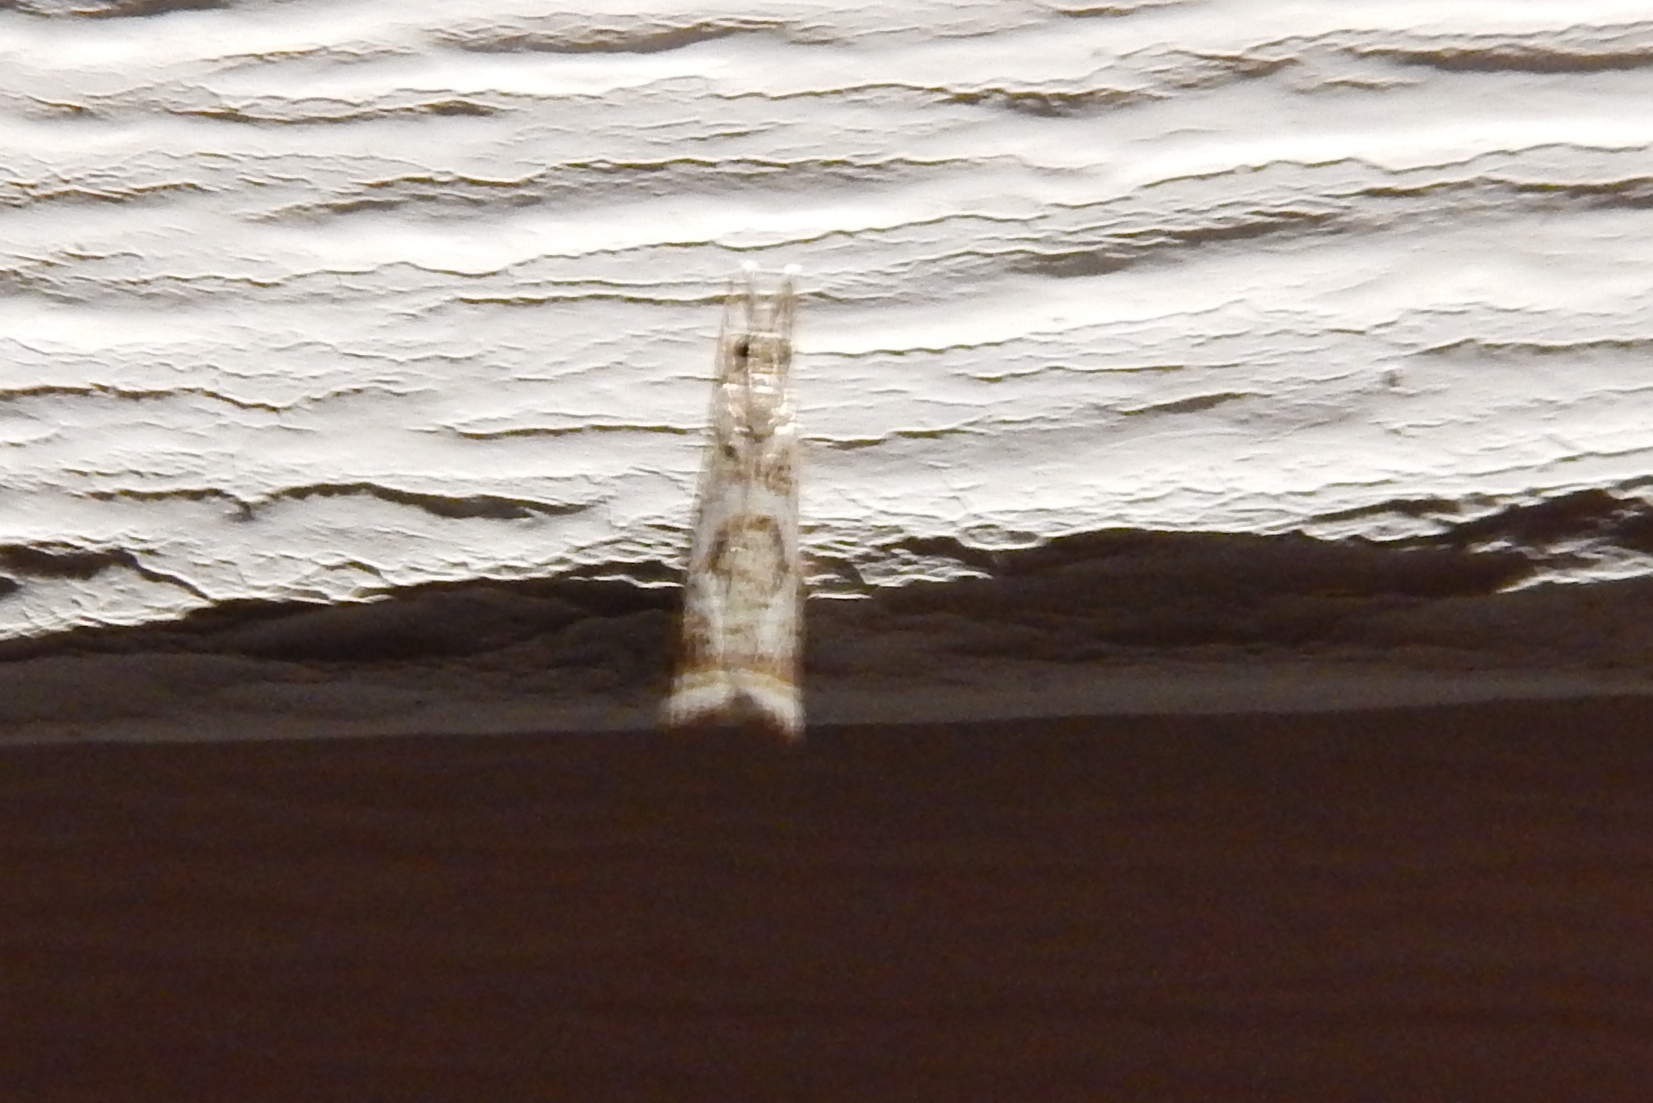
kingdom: Animalia
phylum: Arthropoda
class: Insecta
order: Lepidoptera
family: Crambidae
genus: Microcrambus
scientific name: Microcrambus elegans
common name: Elegant grass-veneer
